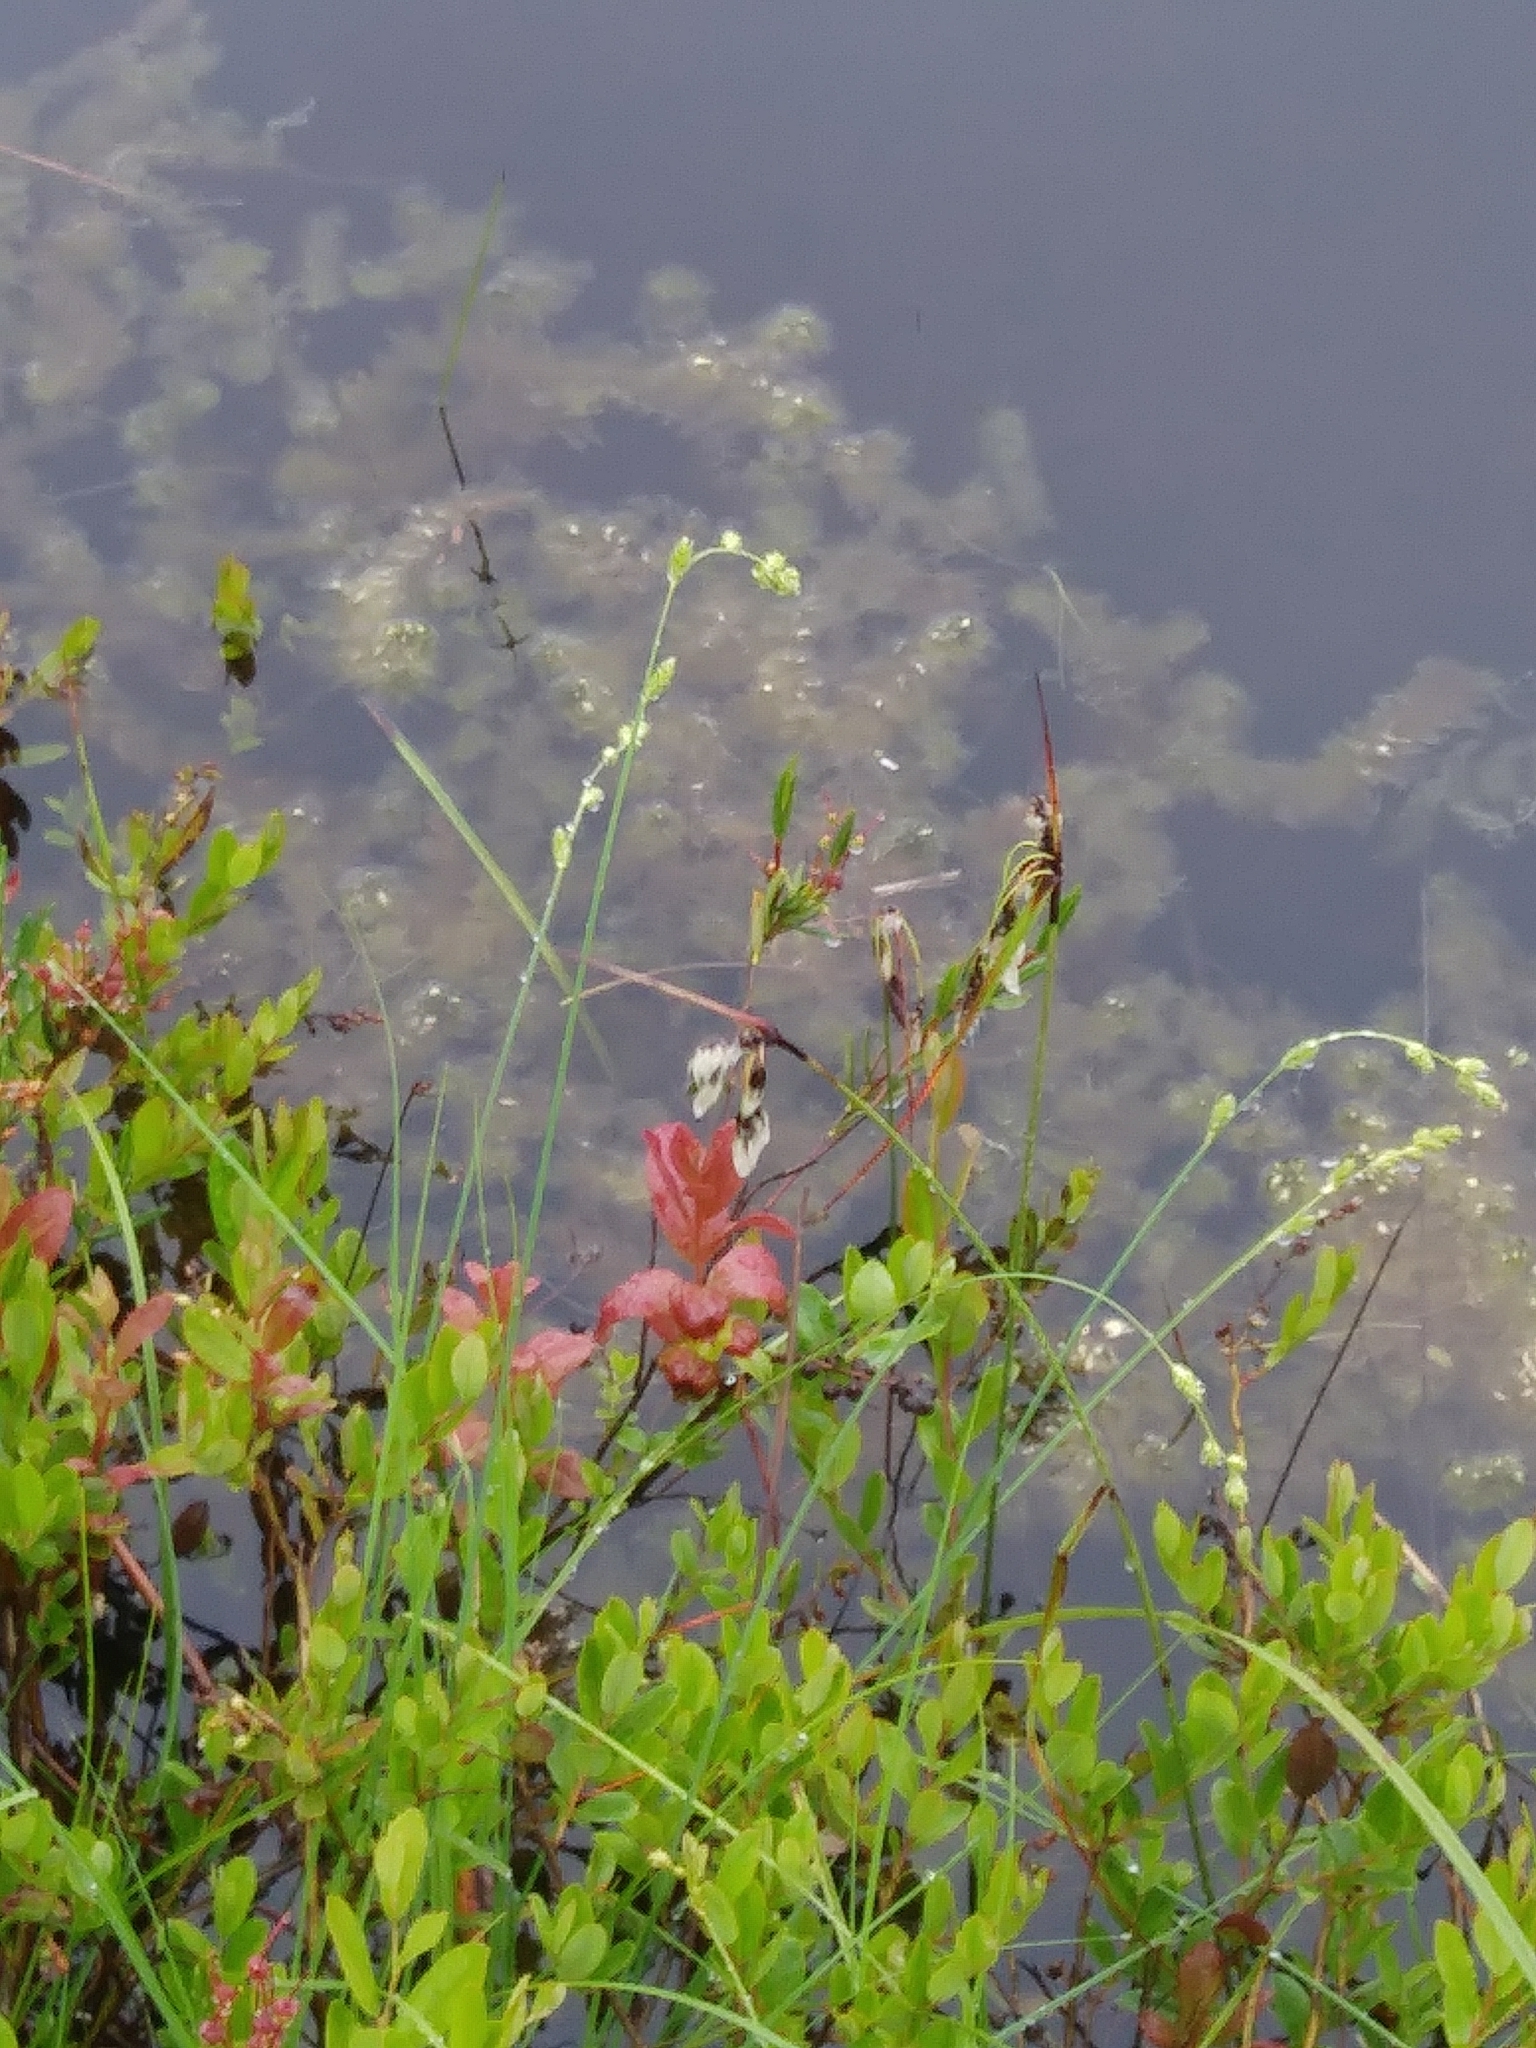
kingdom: Plantae
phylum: Tracheophyta
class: Liliopsida
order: Poales
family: Cyperaceae
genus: Eriophorum
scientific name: Eriophorum angustifolium
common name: Common cottongrass
